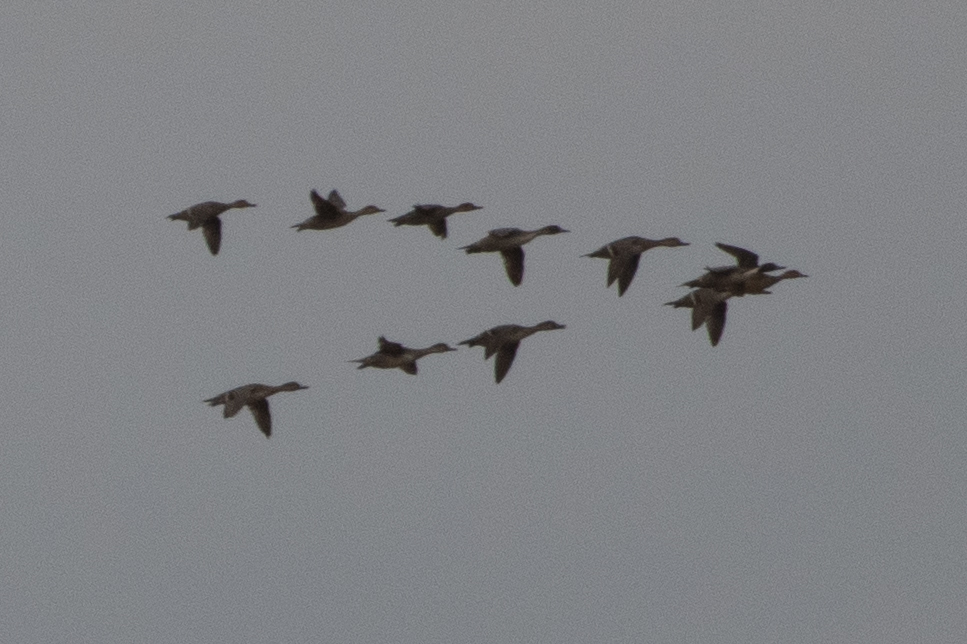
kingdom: Animalia
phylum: Chordata
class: Aves
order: Anseriformes
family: Anatidae
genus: Anas
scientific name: Anas acuta
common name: Northern pintail
